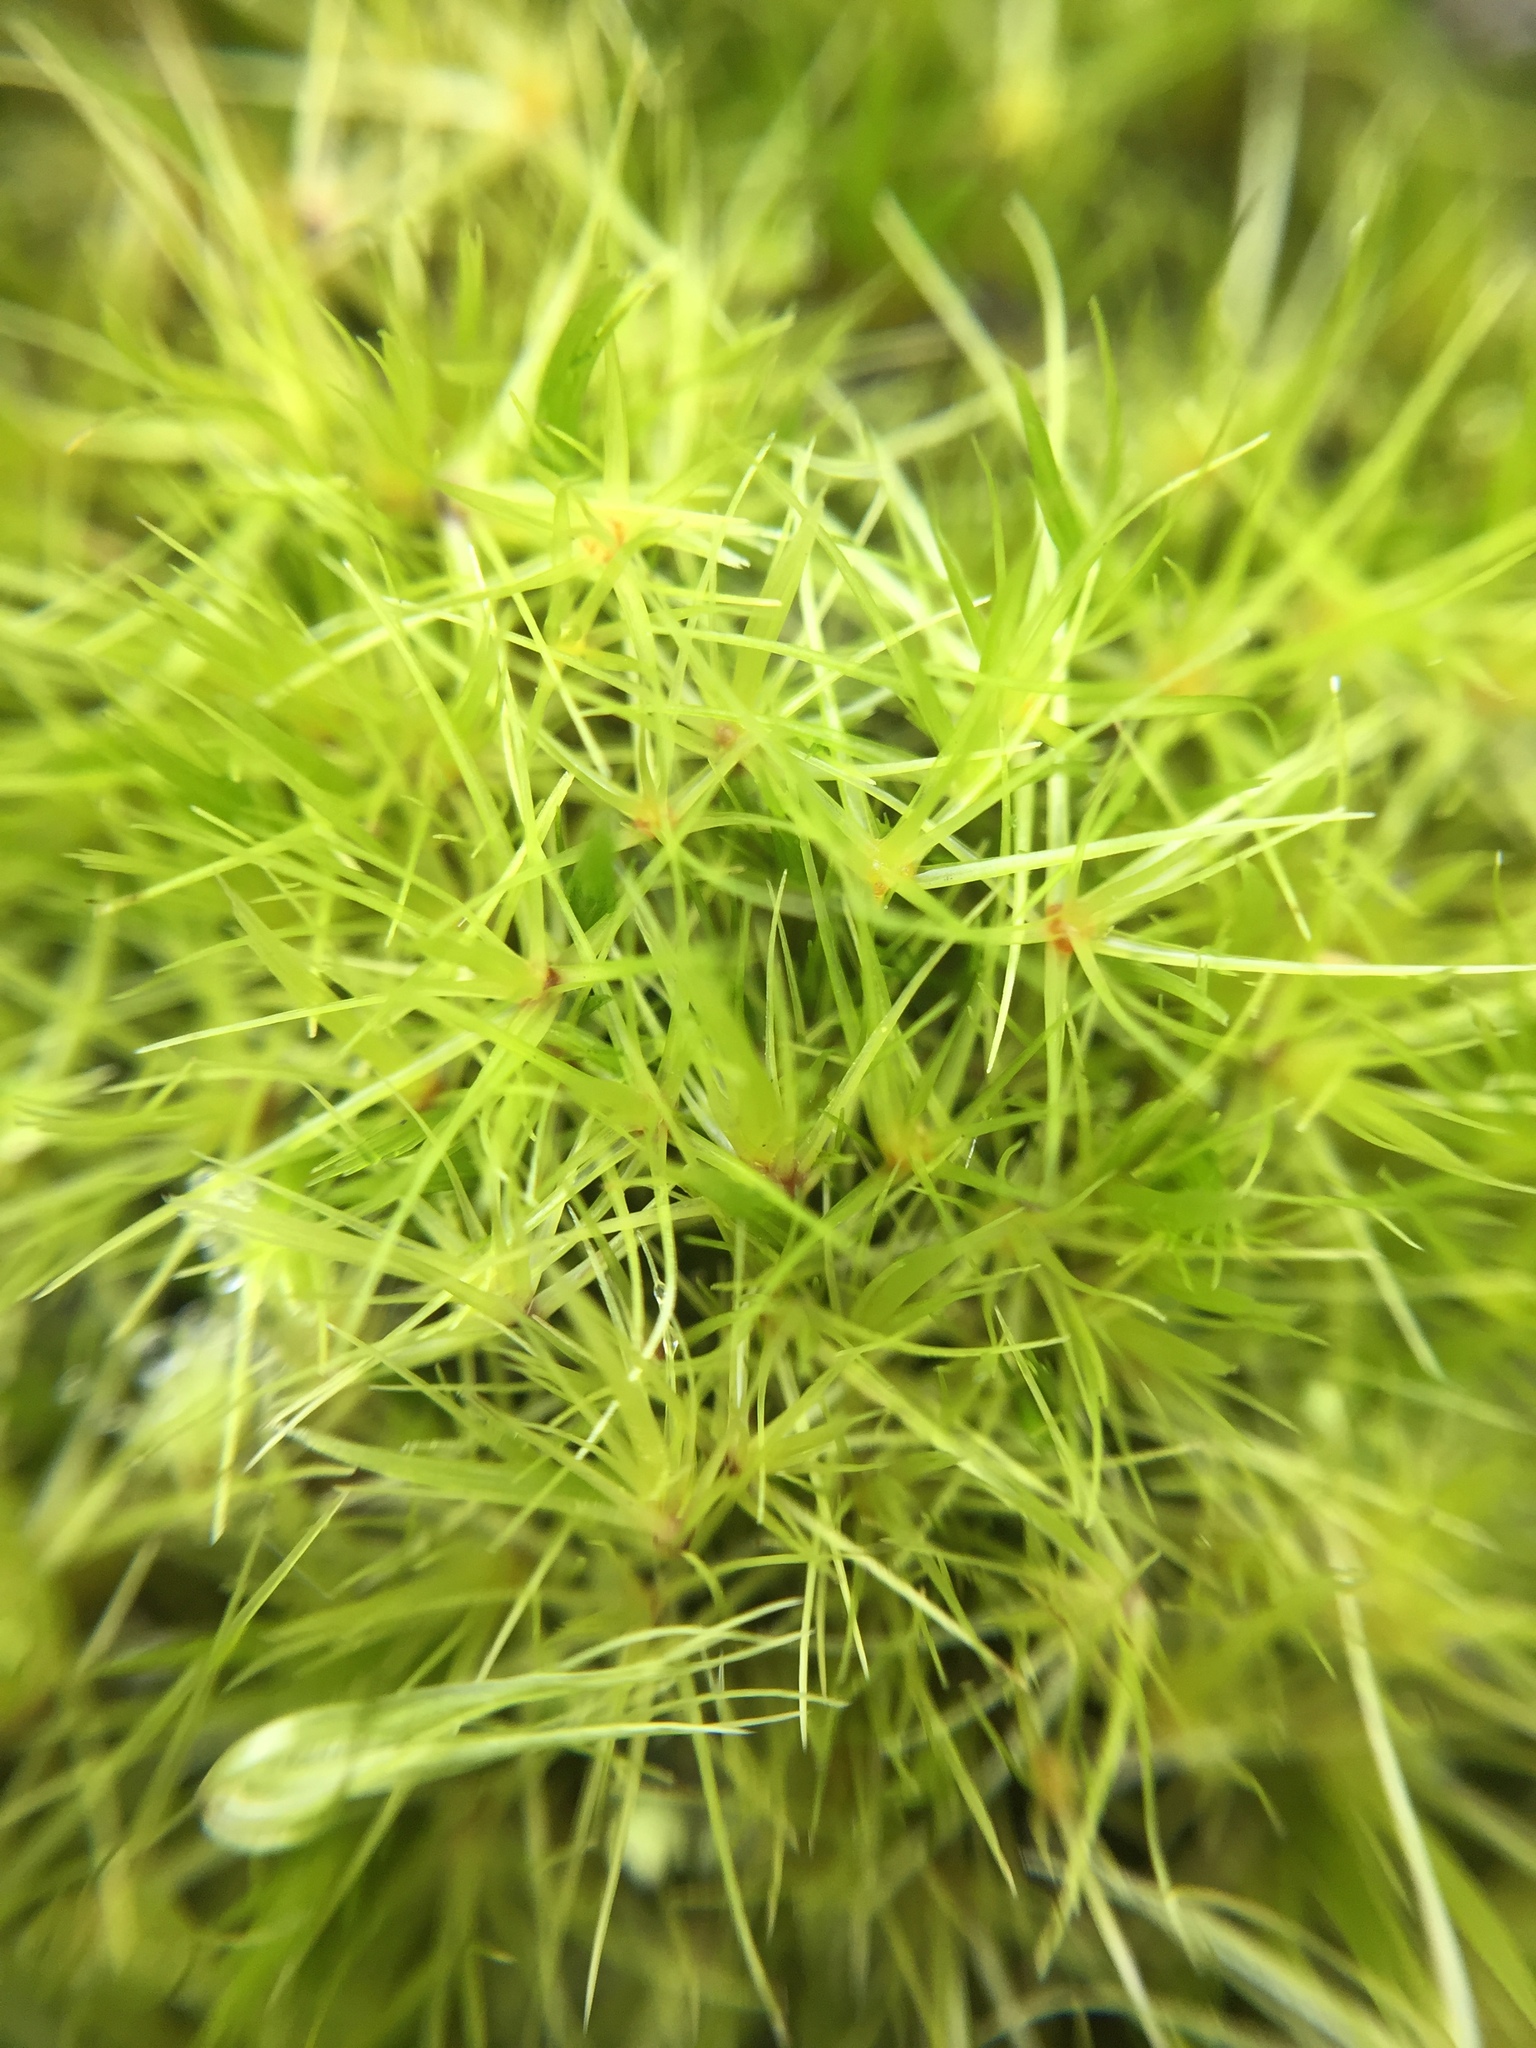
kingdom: Plantae
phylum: Bryophyta
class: Bryopsida
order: Dicranales
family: Leucobryaceae
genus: Campylopus
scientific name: Campylopus clavatus
